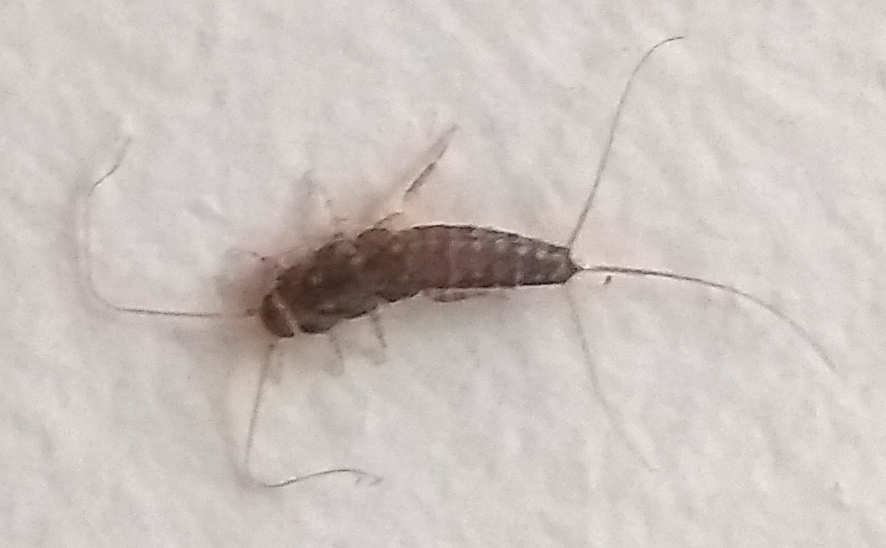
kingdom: Animalia
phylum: Arthropoda
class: Insecta
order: Zygentoma
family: Lepismatidae
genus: Ctenolepisma
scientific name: Ctenolepisma longicaudatum
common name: Silverfish
